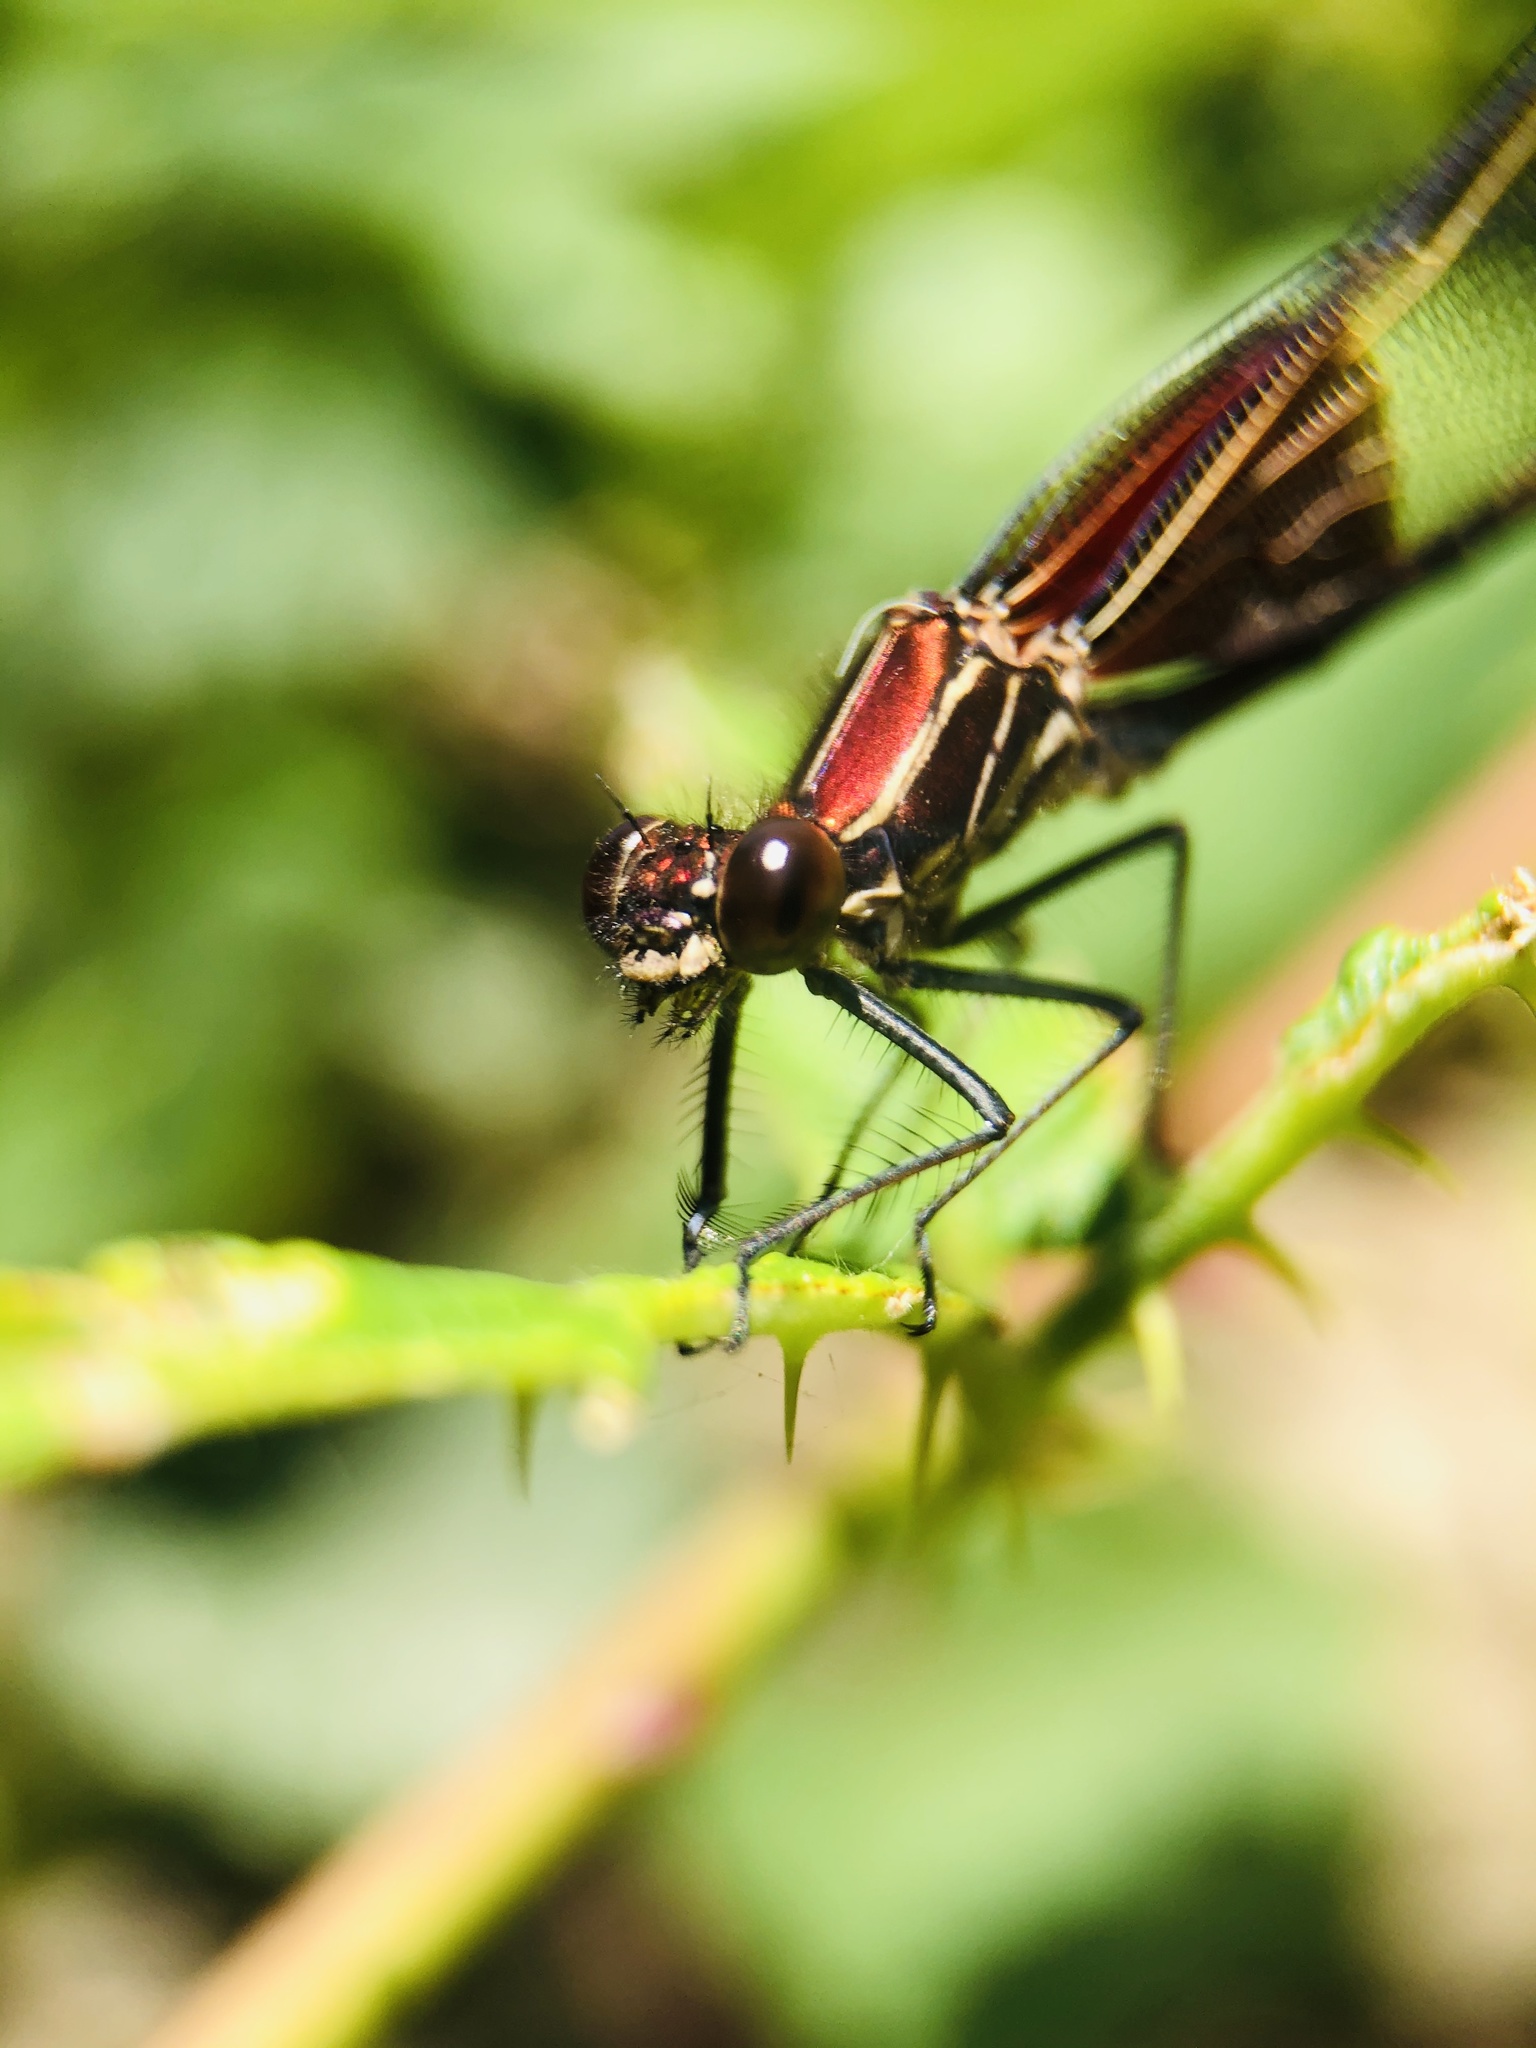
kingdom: Animalia
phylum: Arthropoda
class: Insecta
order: Odonata
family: Calopterygidae
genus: Hetaerina
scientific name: Hetaerina americana
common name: American rubyspot
